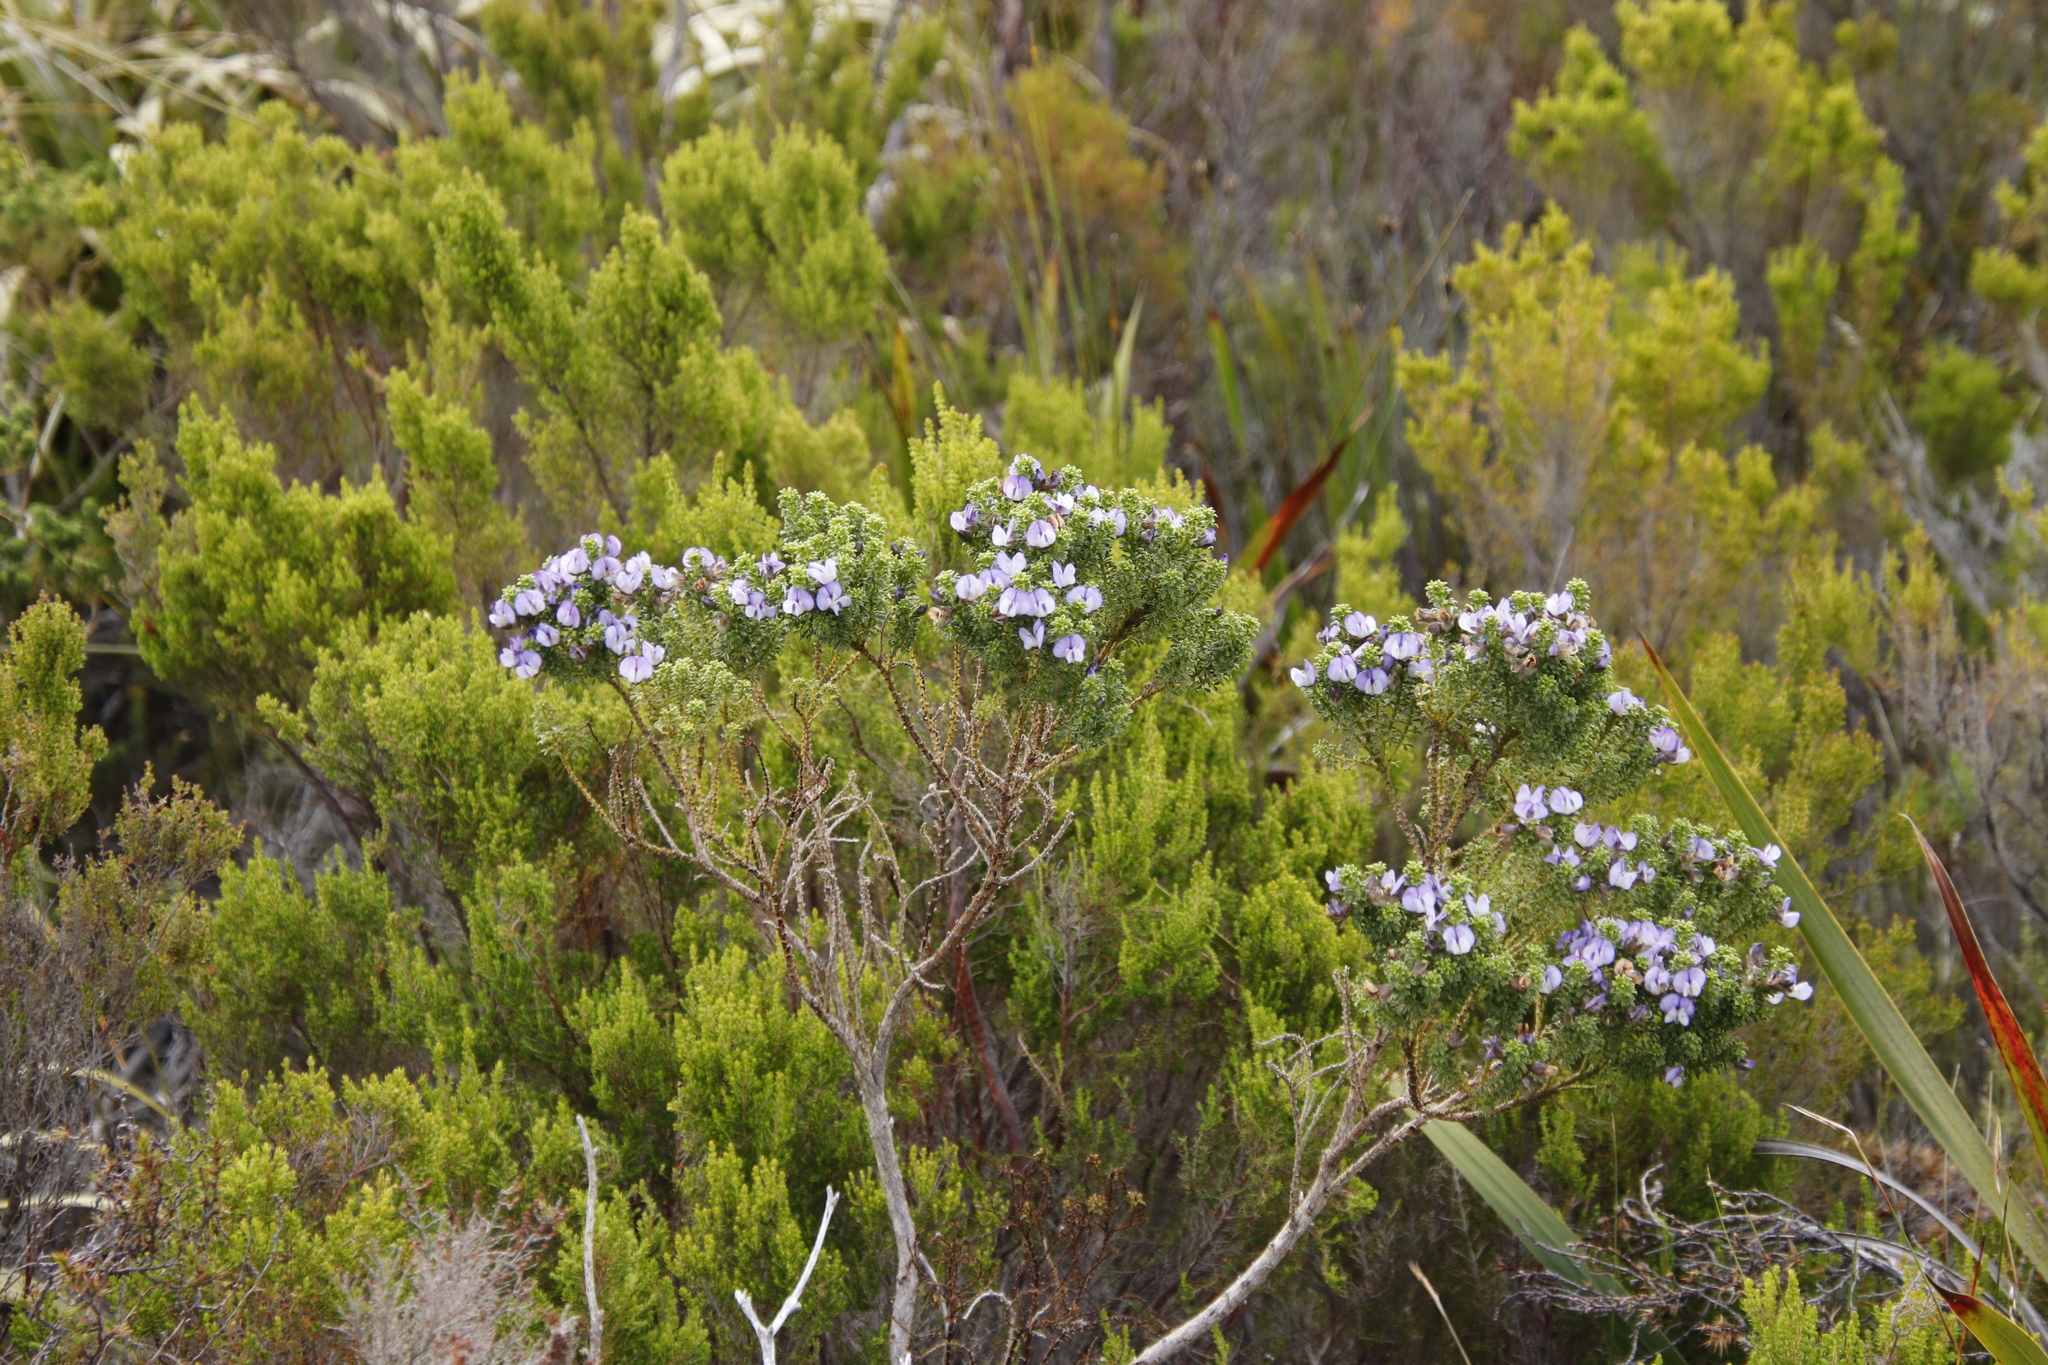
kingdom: Plantae
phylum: Tracheophyta
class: Magnoliopsida
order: Fabales
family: Fabaceae
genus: Psoralea
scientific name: Psoralea aculeata
